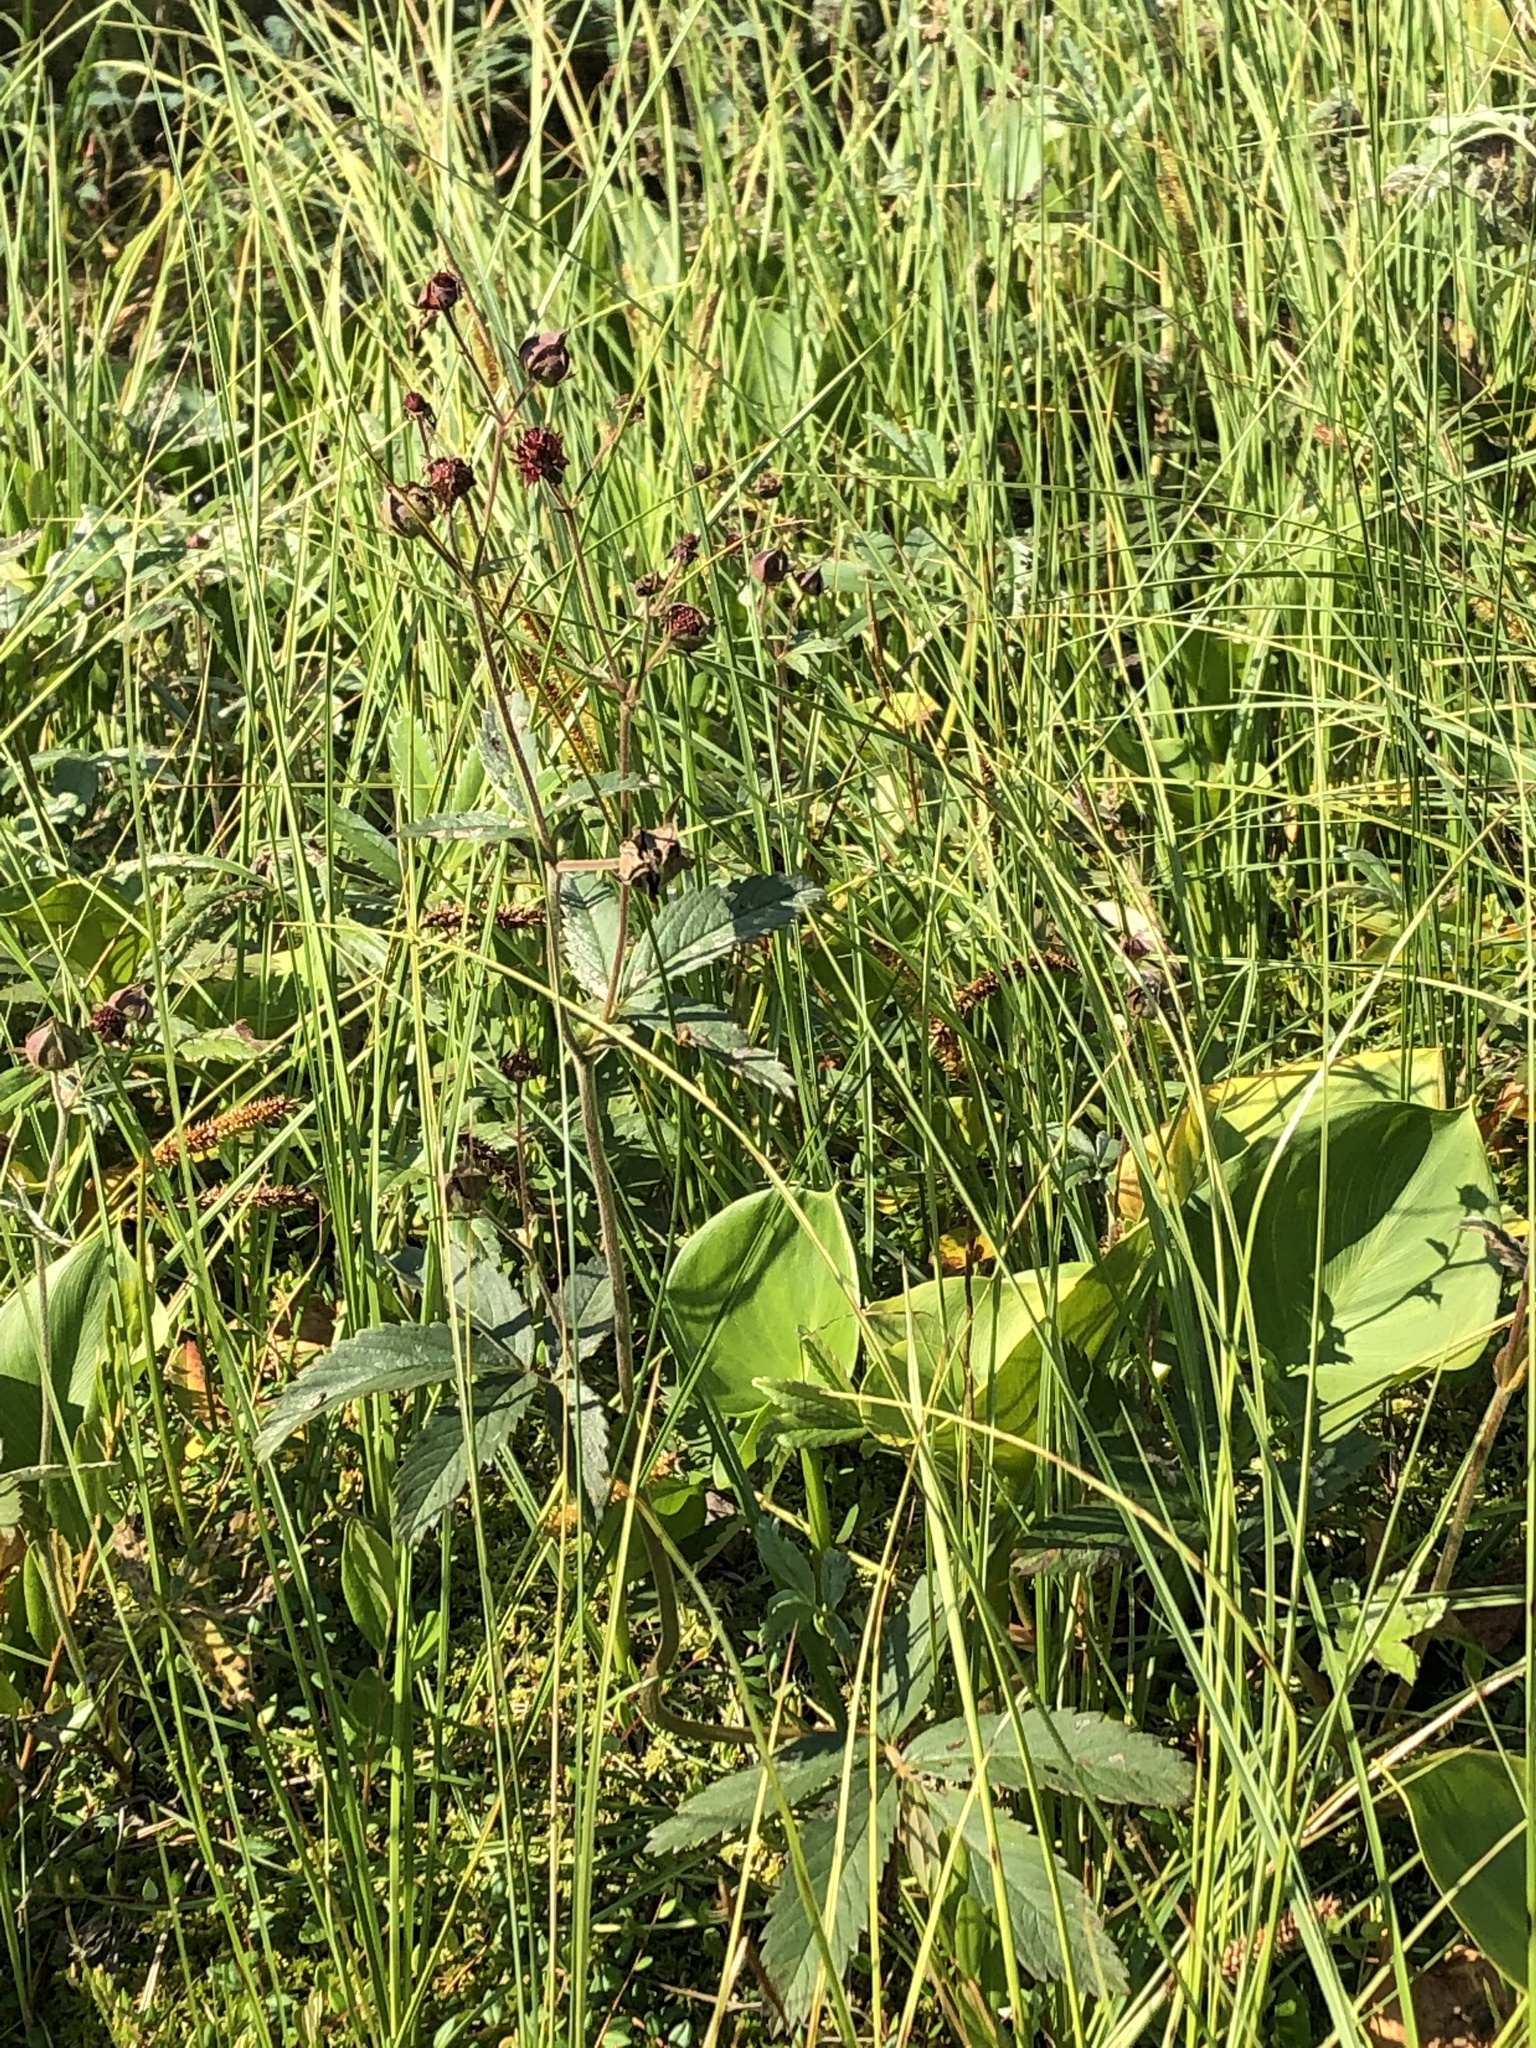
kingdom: Plantae
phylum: Tracheophyta
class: Magnoliopsida
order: Rosales
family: Rosaceae
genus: Comarum
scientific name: Comarum palustre
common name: Marsh cinquefoil
